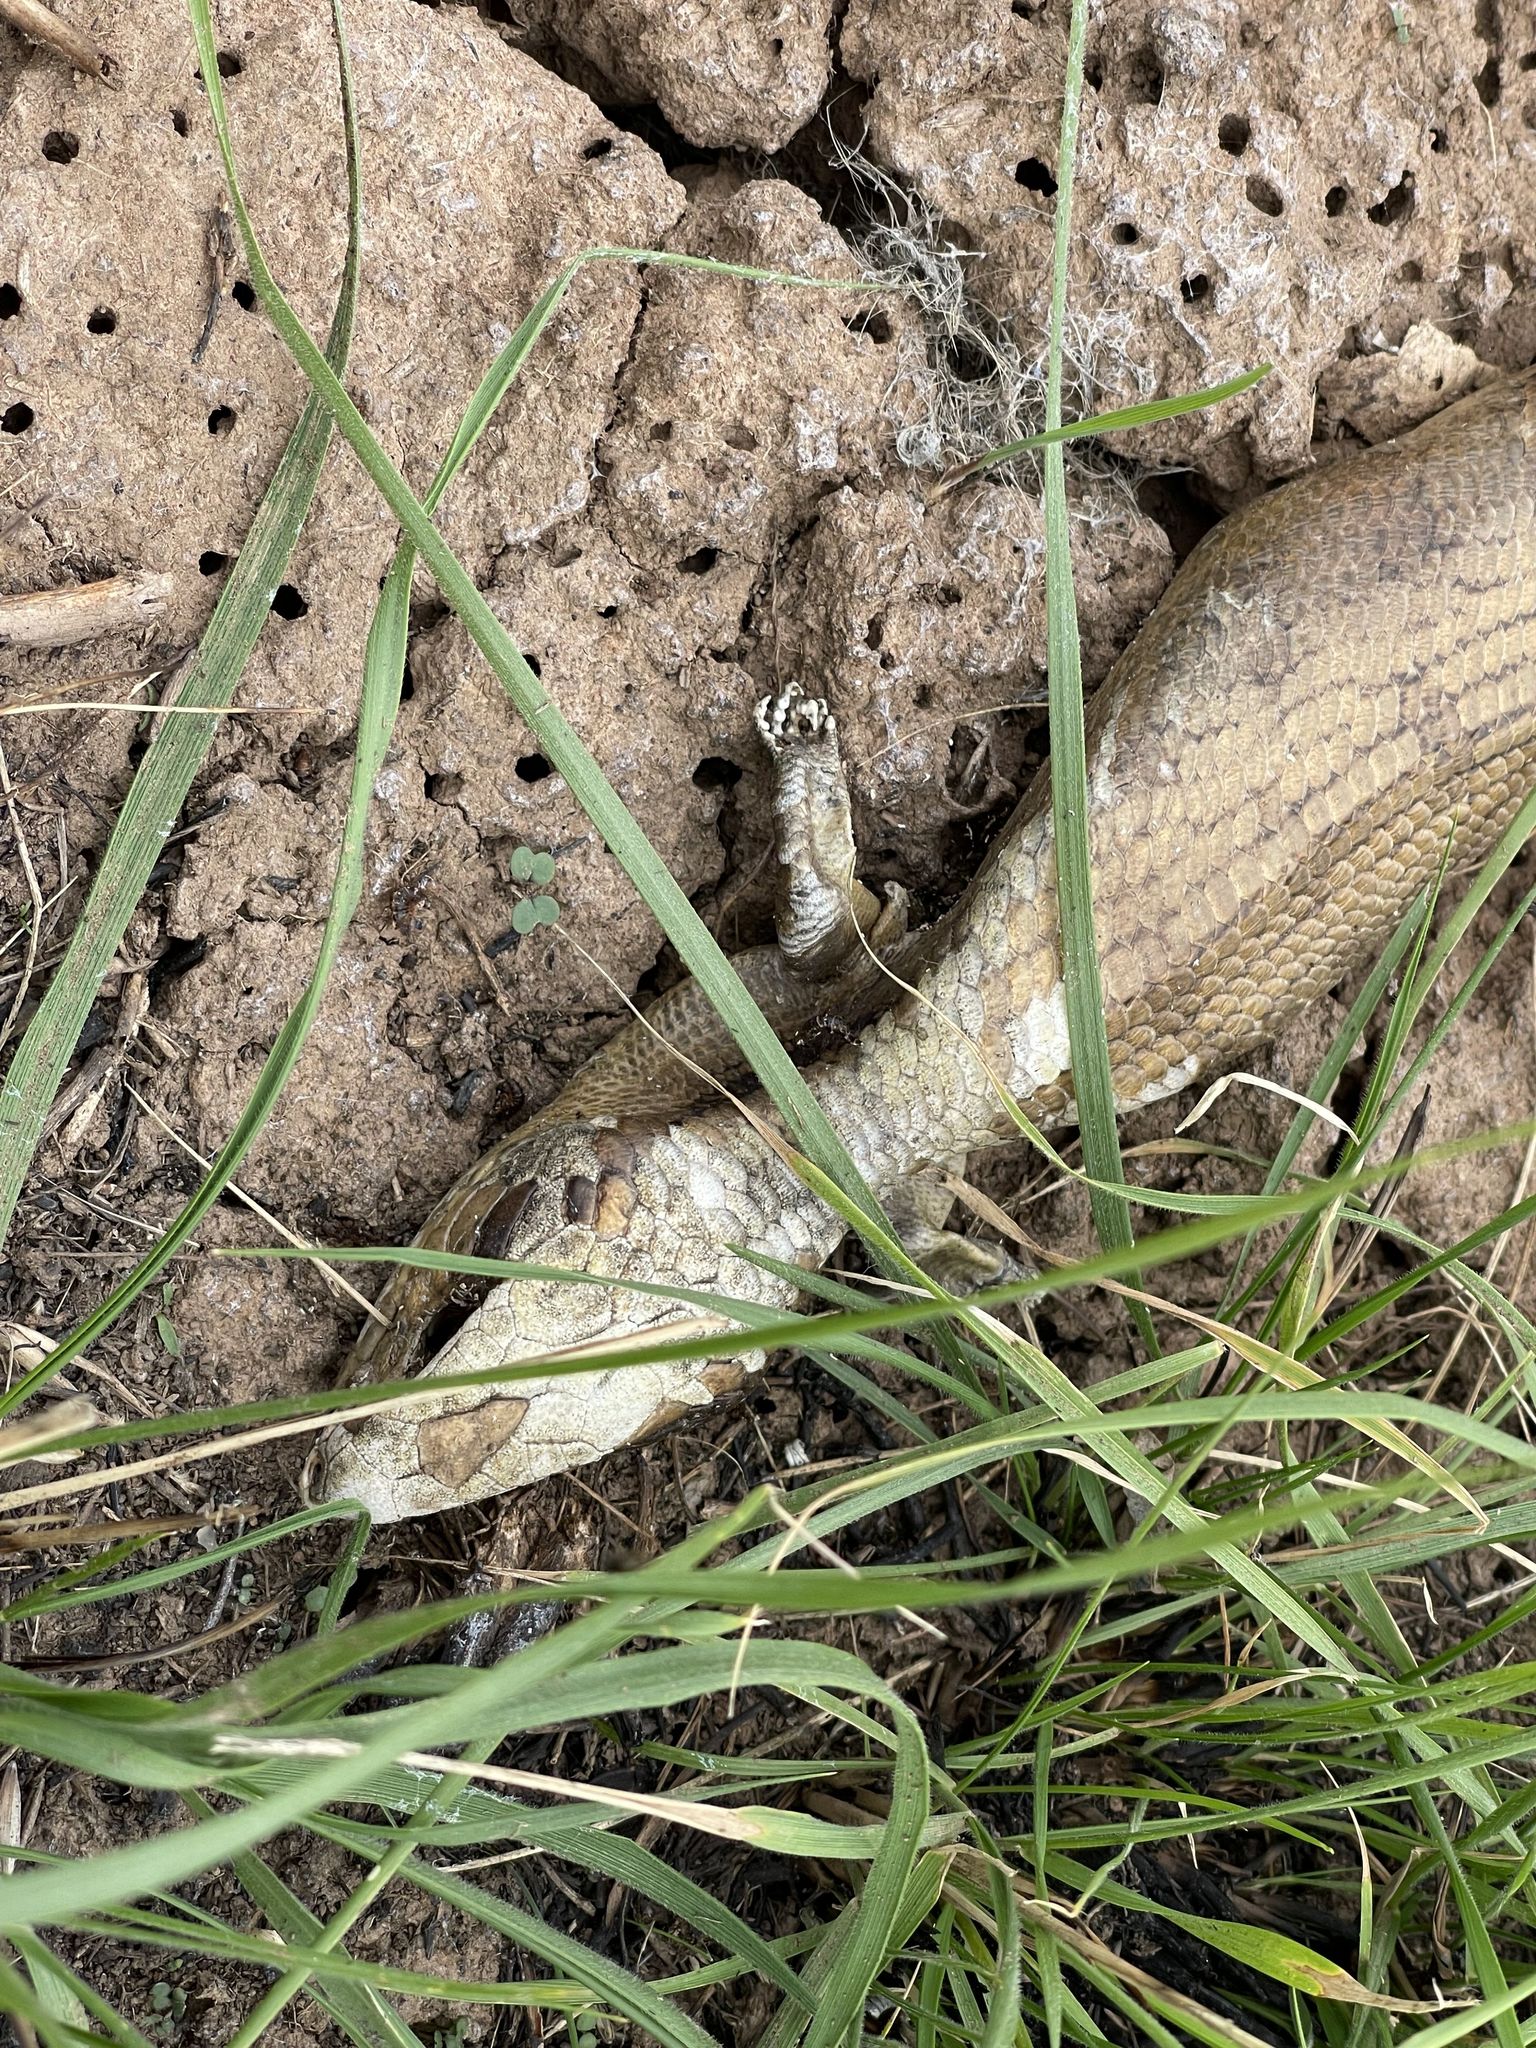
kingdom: Animalia
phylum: Chordata
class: Squamata
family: Scincidae
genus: Tiliqua
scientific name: Tiliqua scincoides
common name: Common bluetongue
